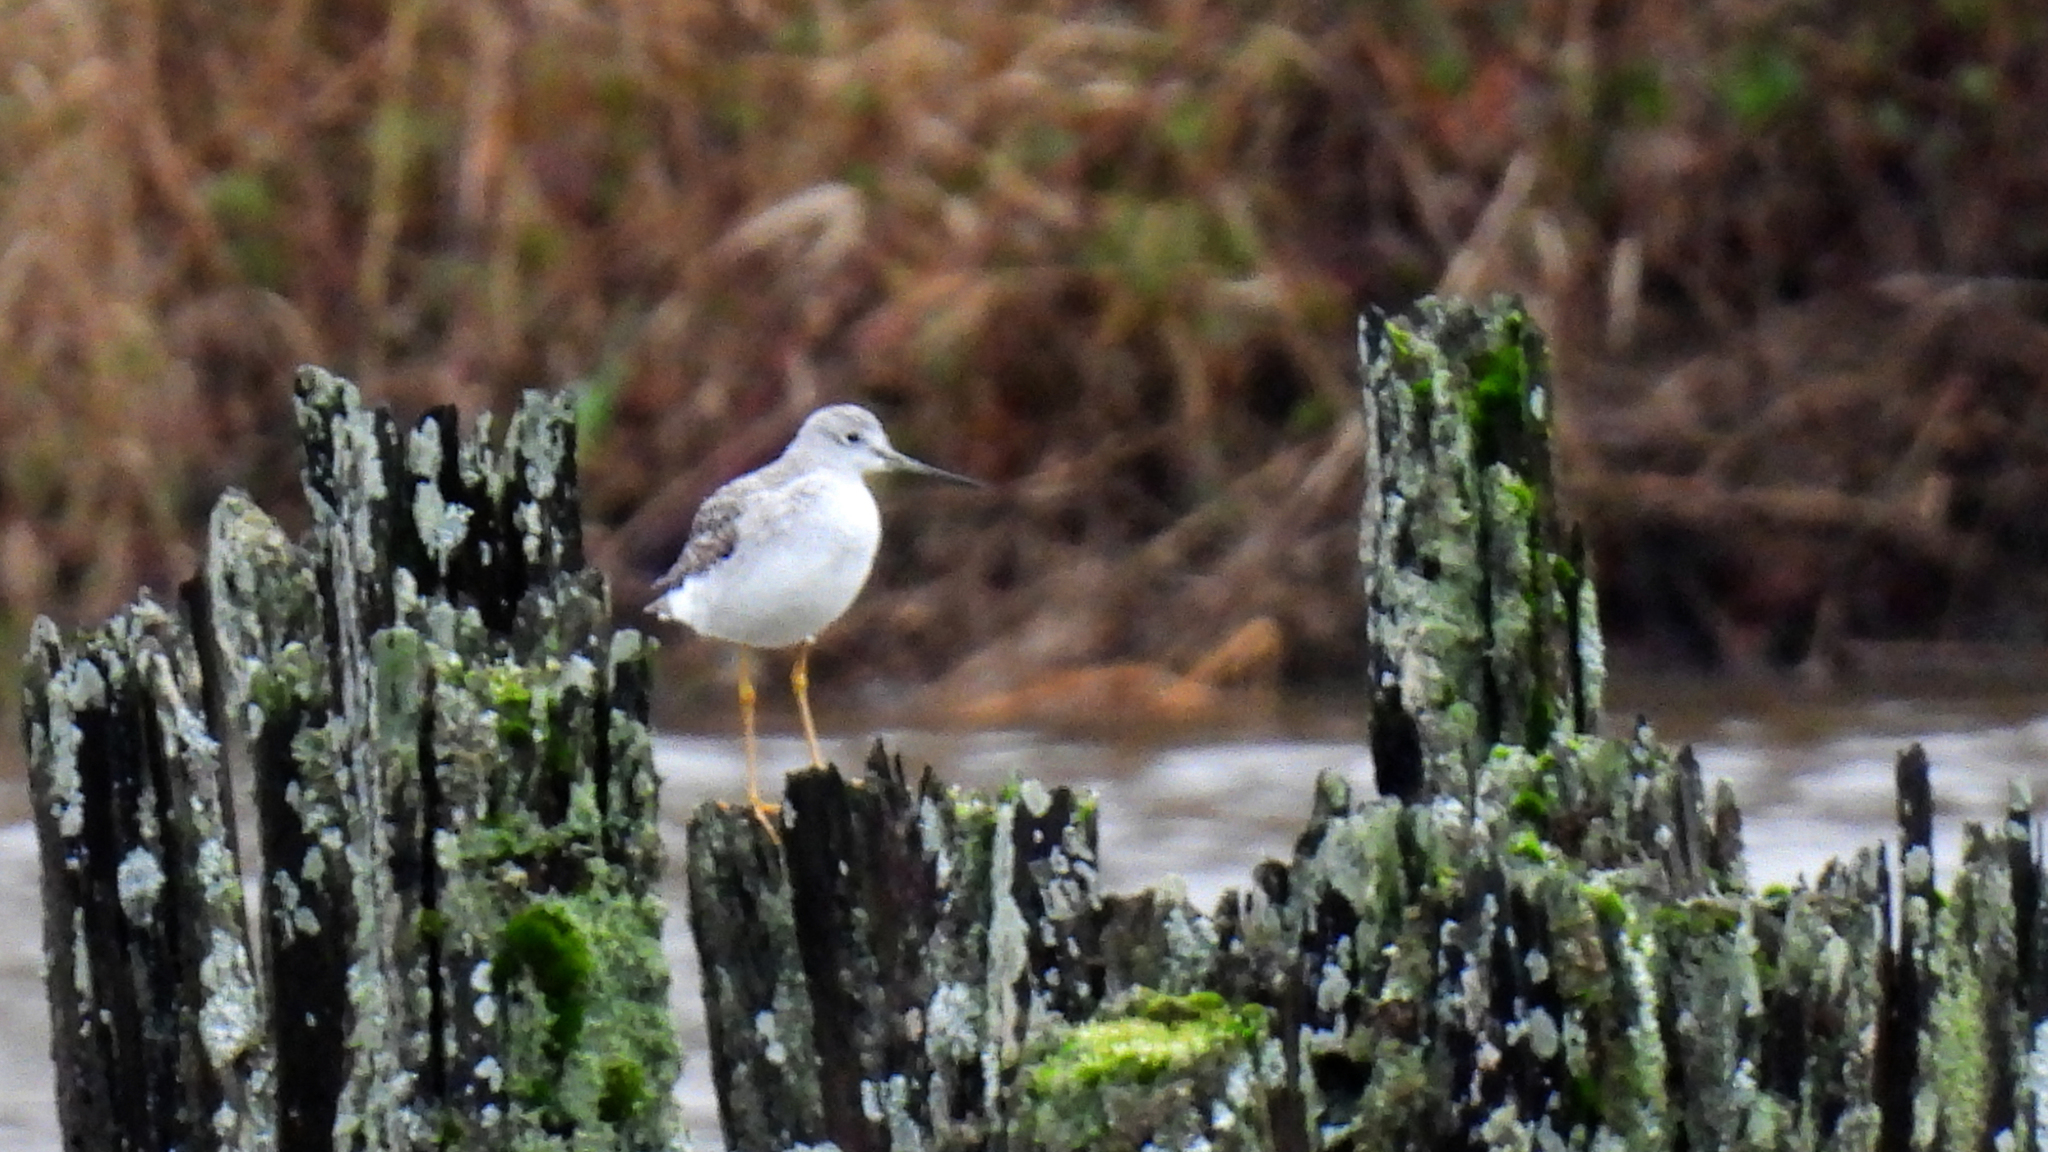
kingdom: Animalia
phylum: Chordata
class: Aves
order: Charadriiformes
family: Scolopacidae
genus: Tringa
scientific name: Tringa melanoleuca
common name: Greater yellowlegs
